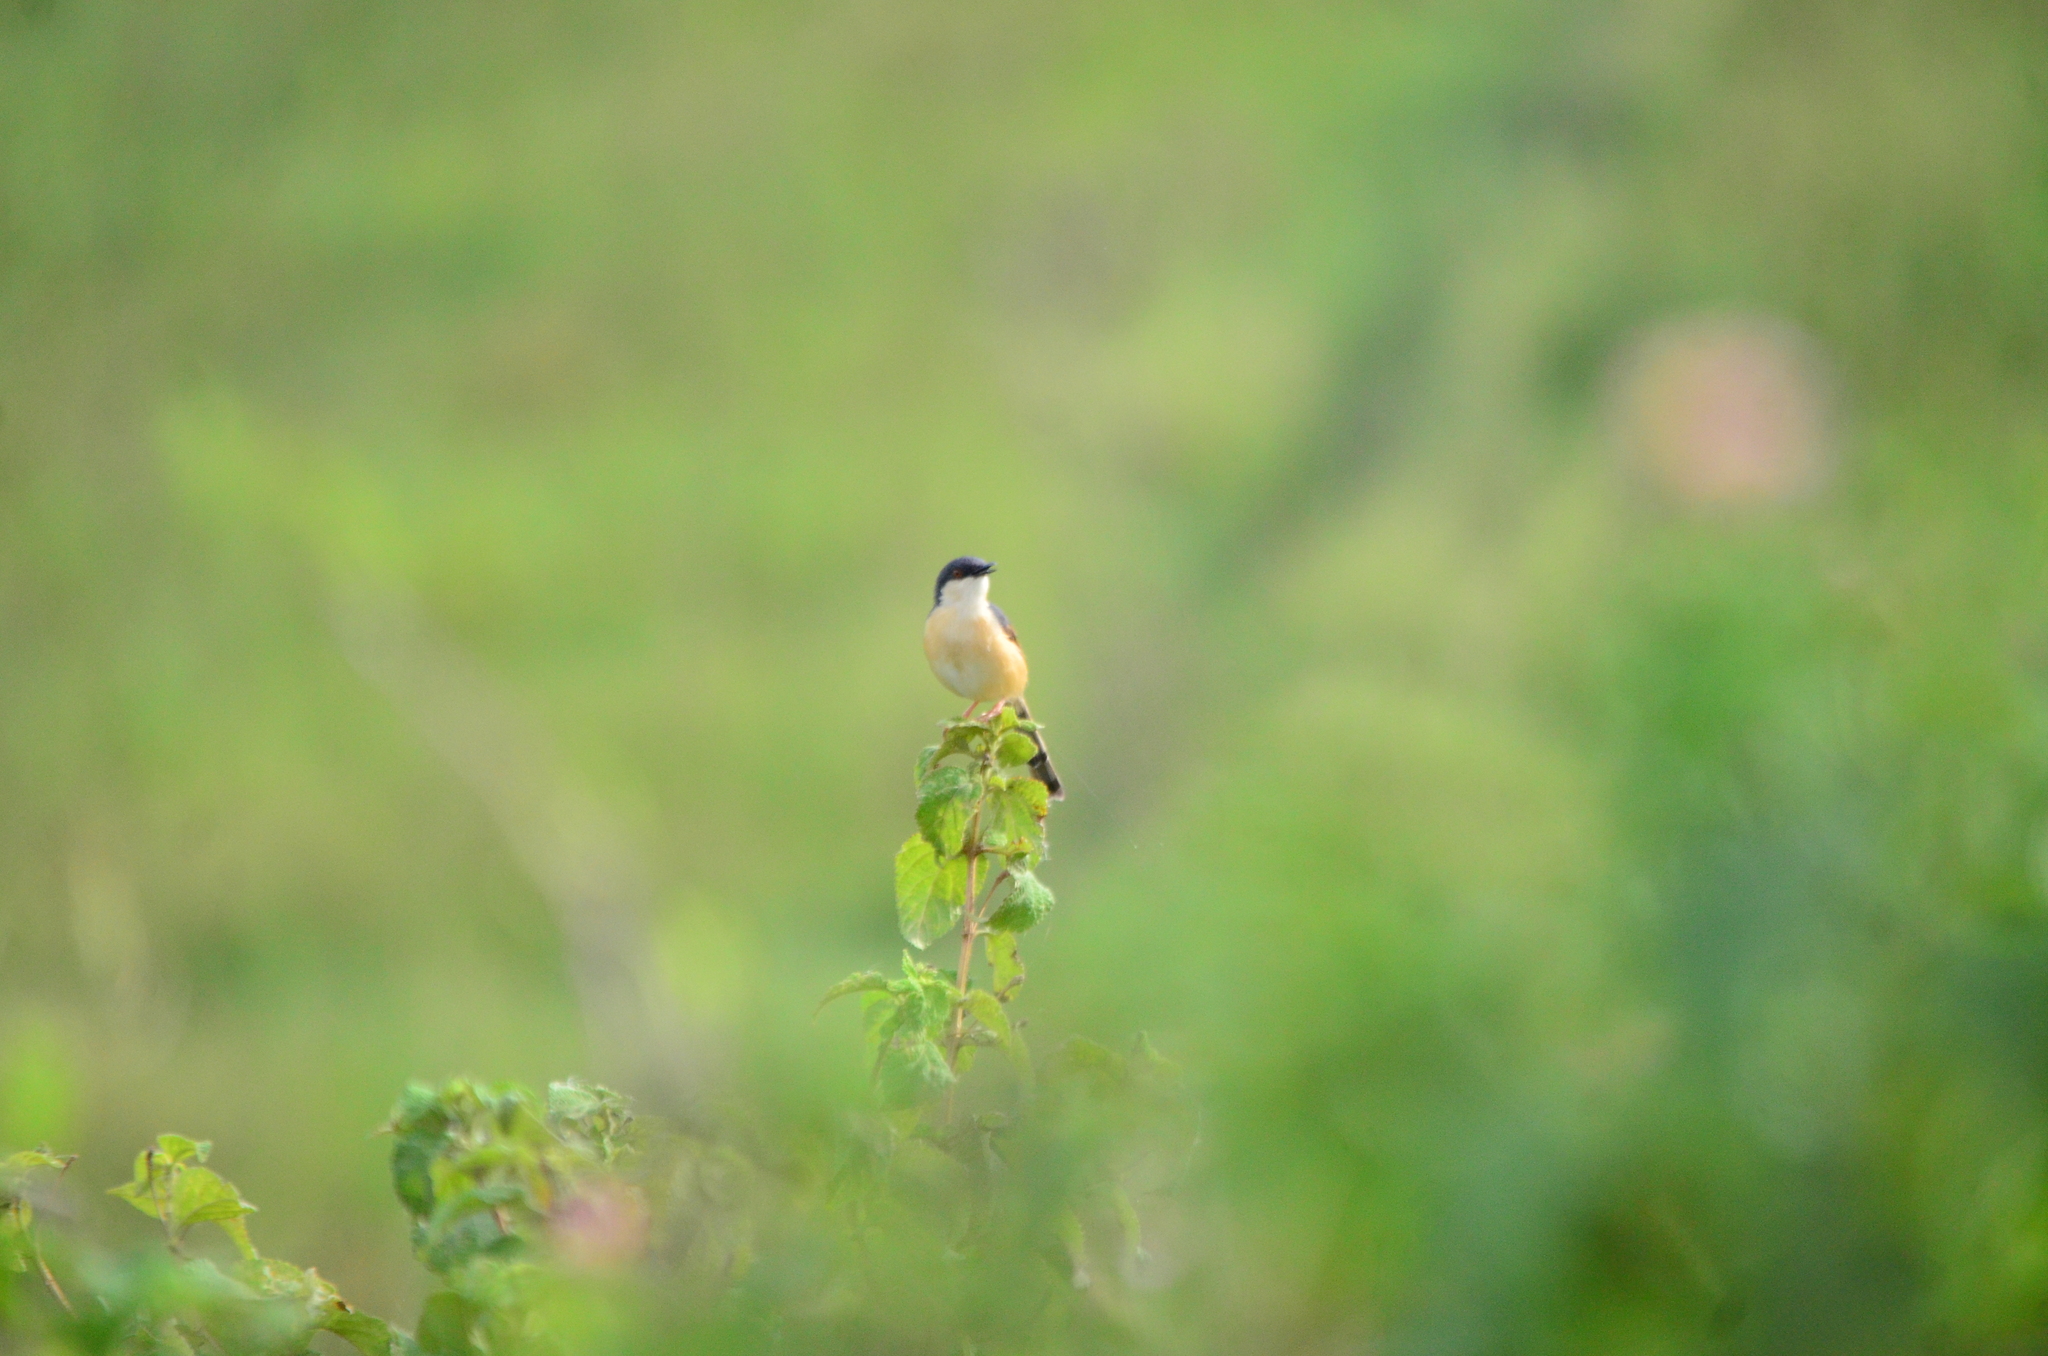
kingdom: Animalia
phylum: Chordata
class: Aves
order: Passeriformes
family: Cisticolidae
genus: Prinia
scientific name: Prinia socialis
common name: Ashy prinia
